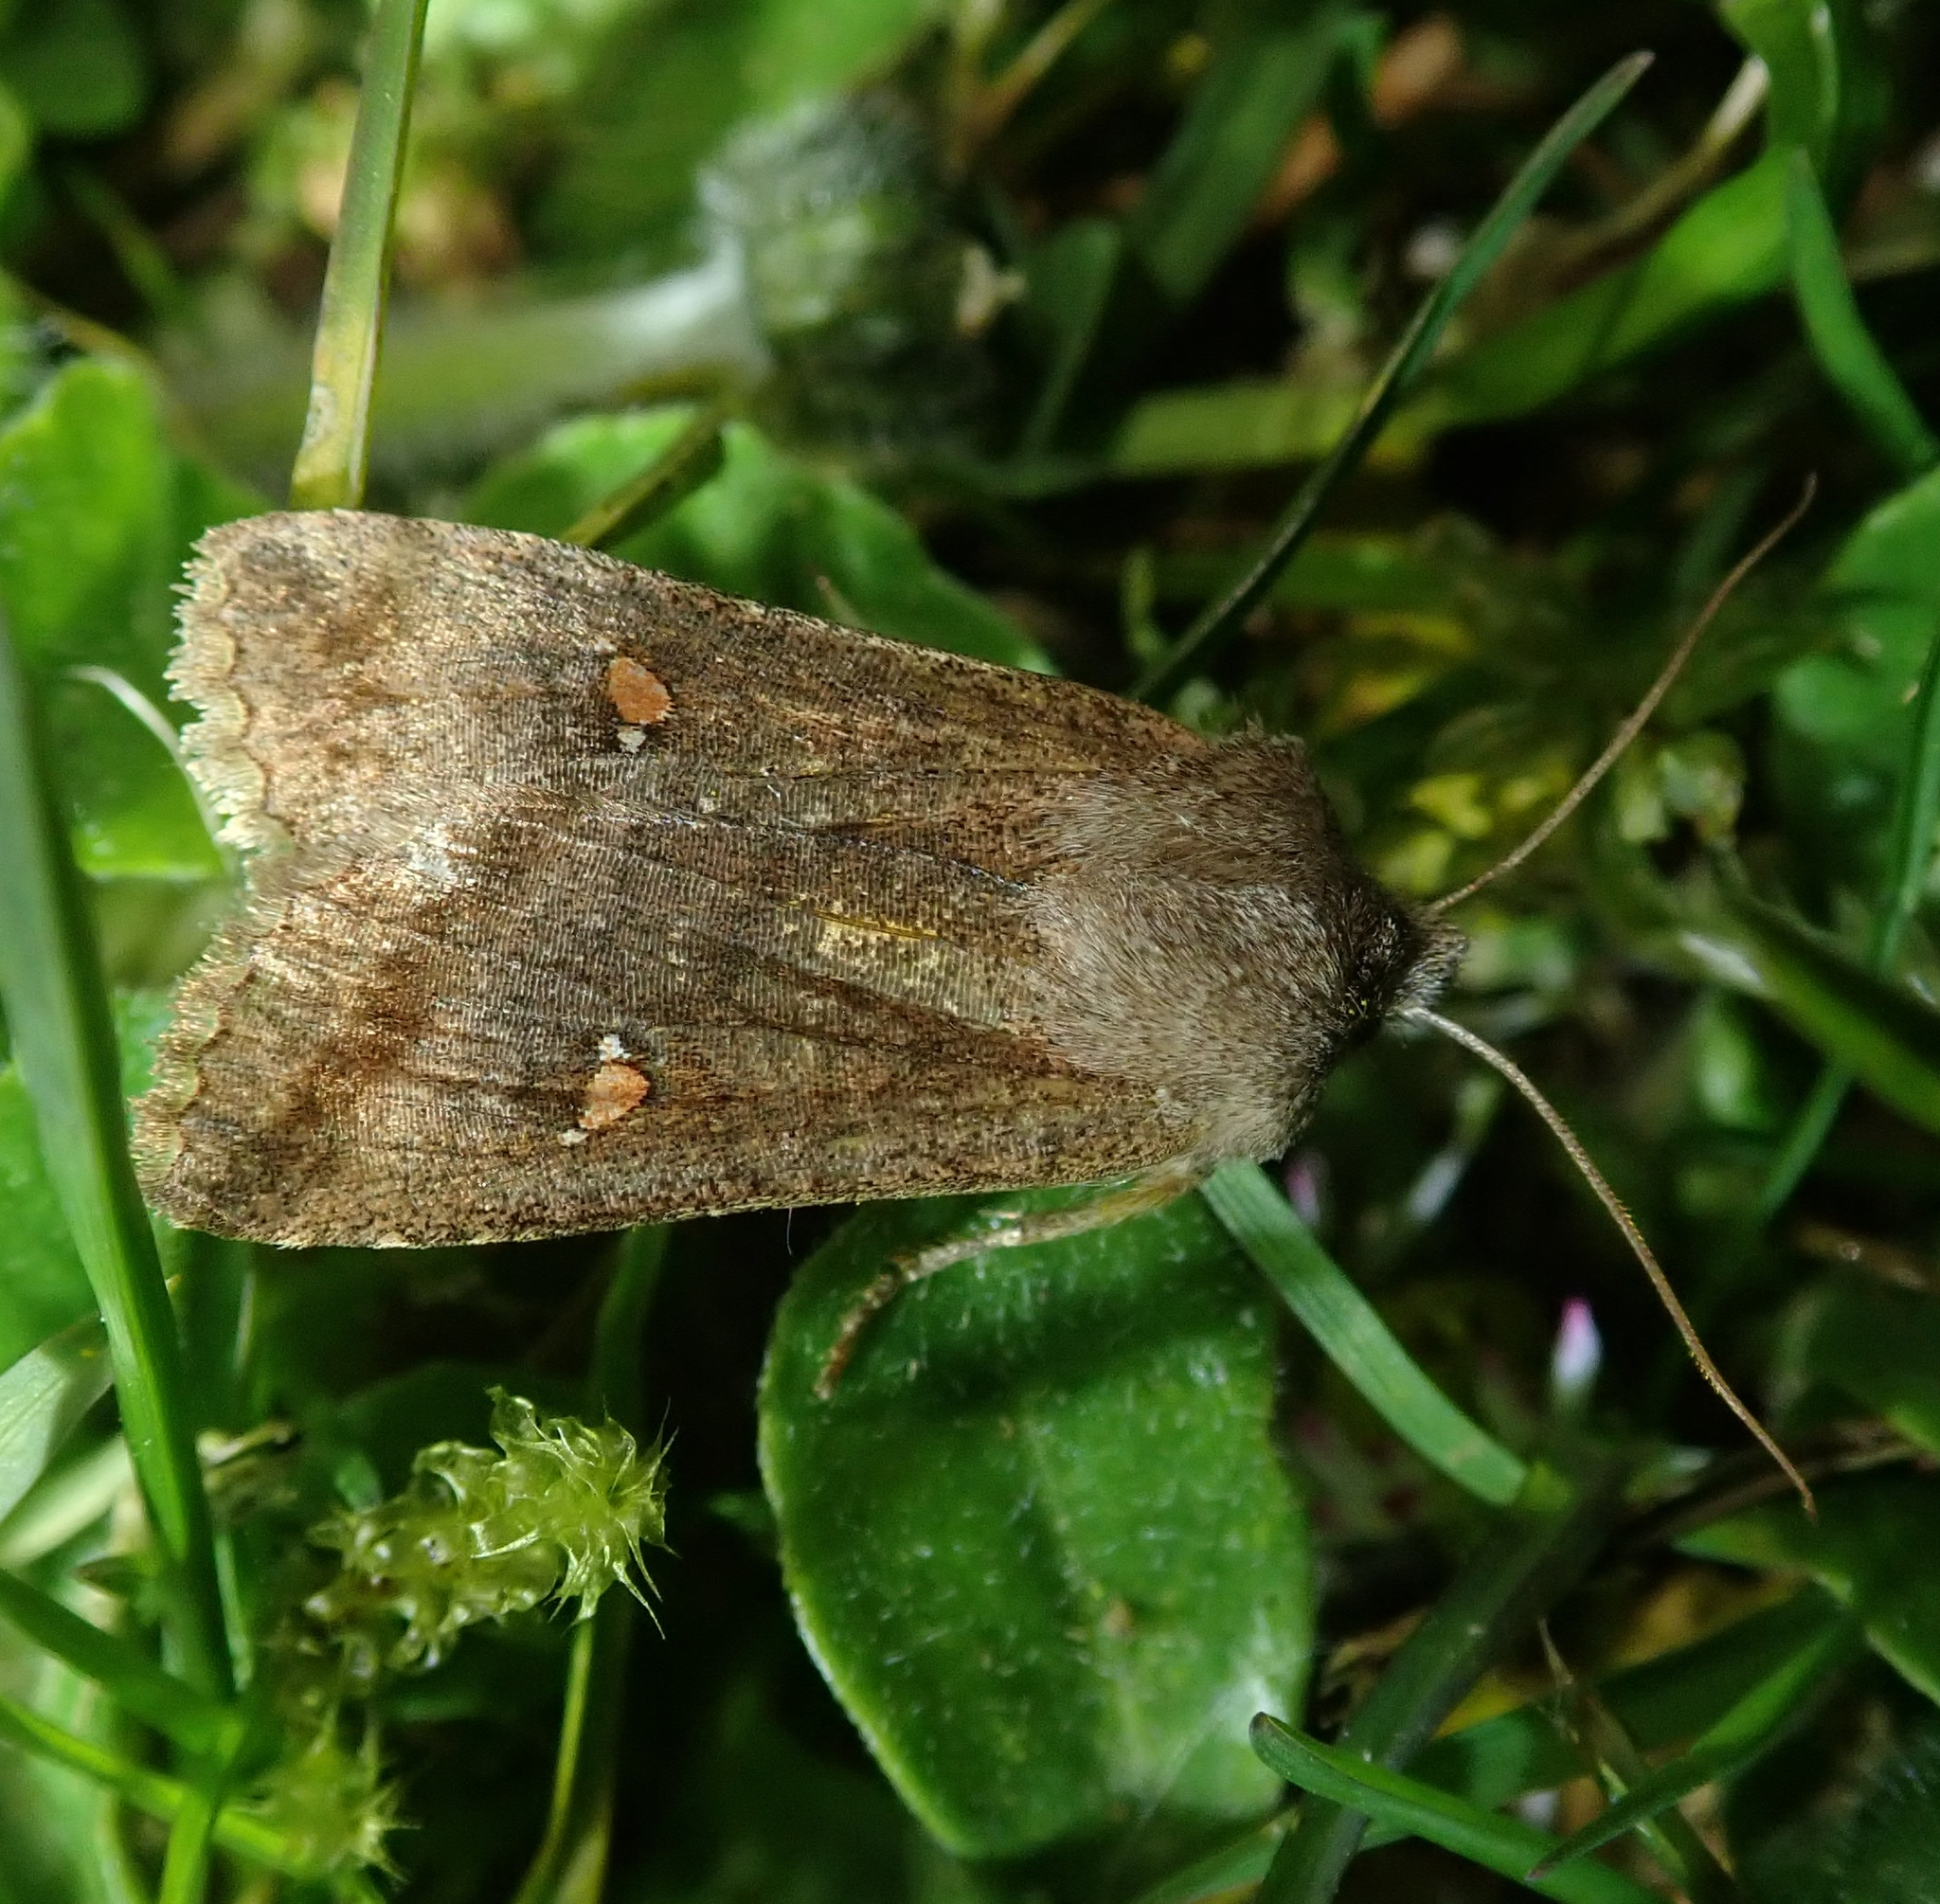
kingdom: Animalia
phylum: Arthropoda
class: Insecta
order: Lepidoptera
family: Noctuidae
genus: Eupsilia
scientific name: Eupsilia transversa
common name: Satellite
